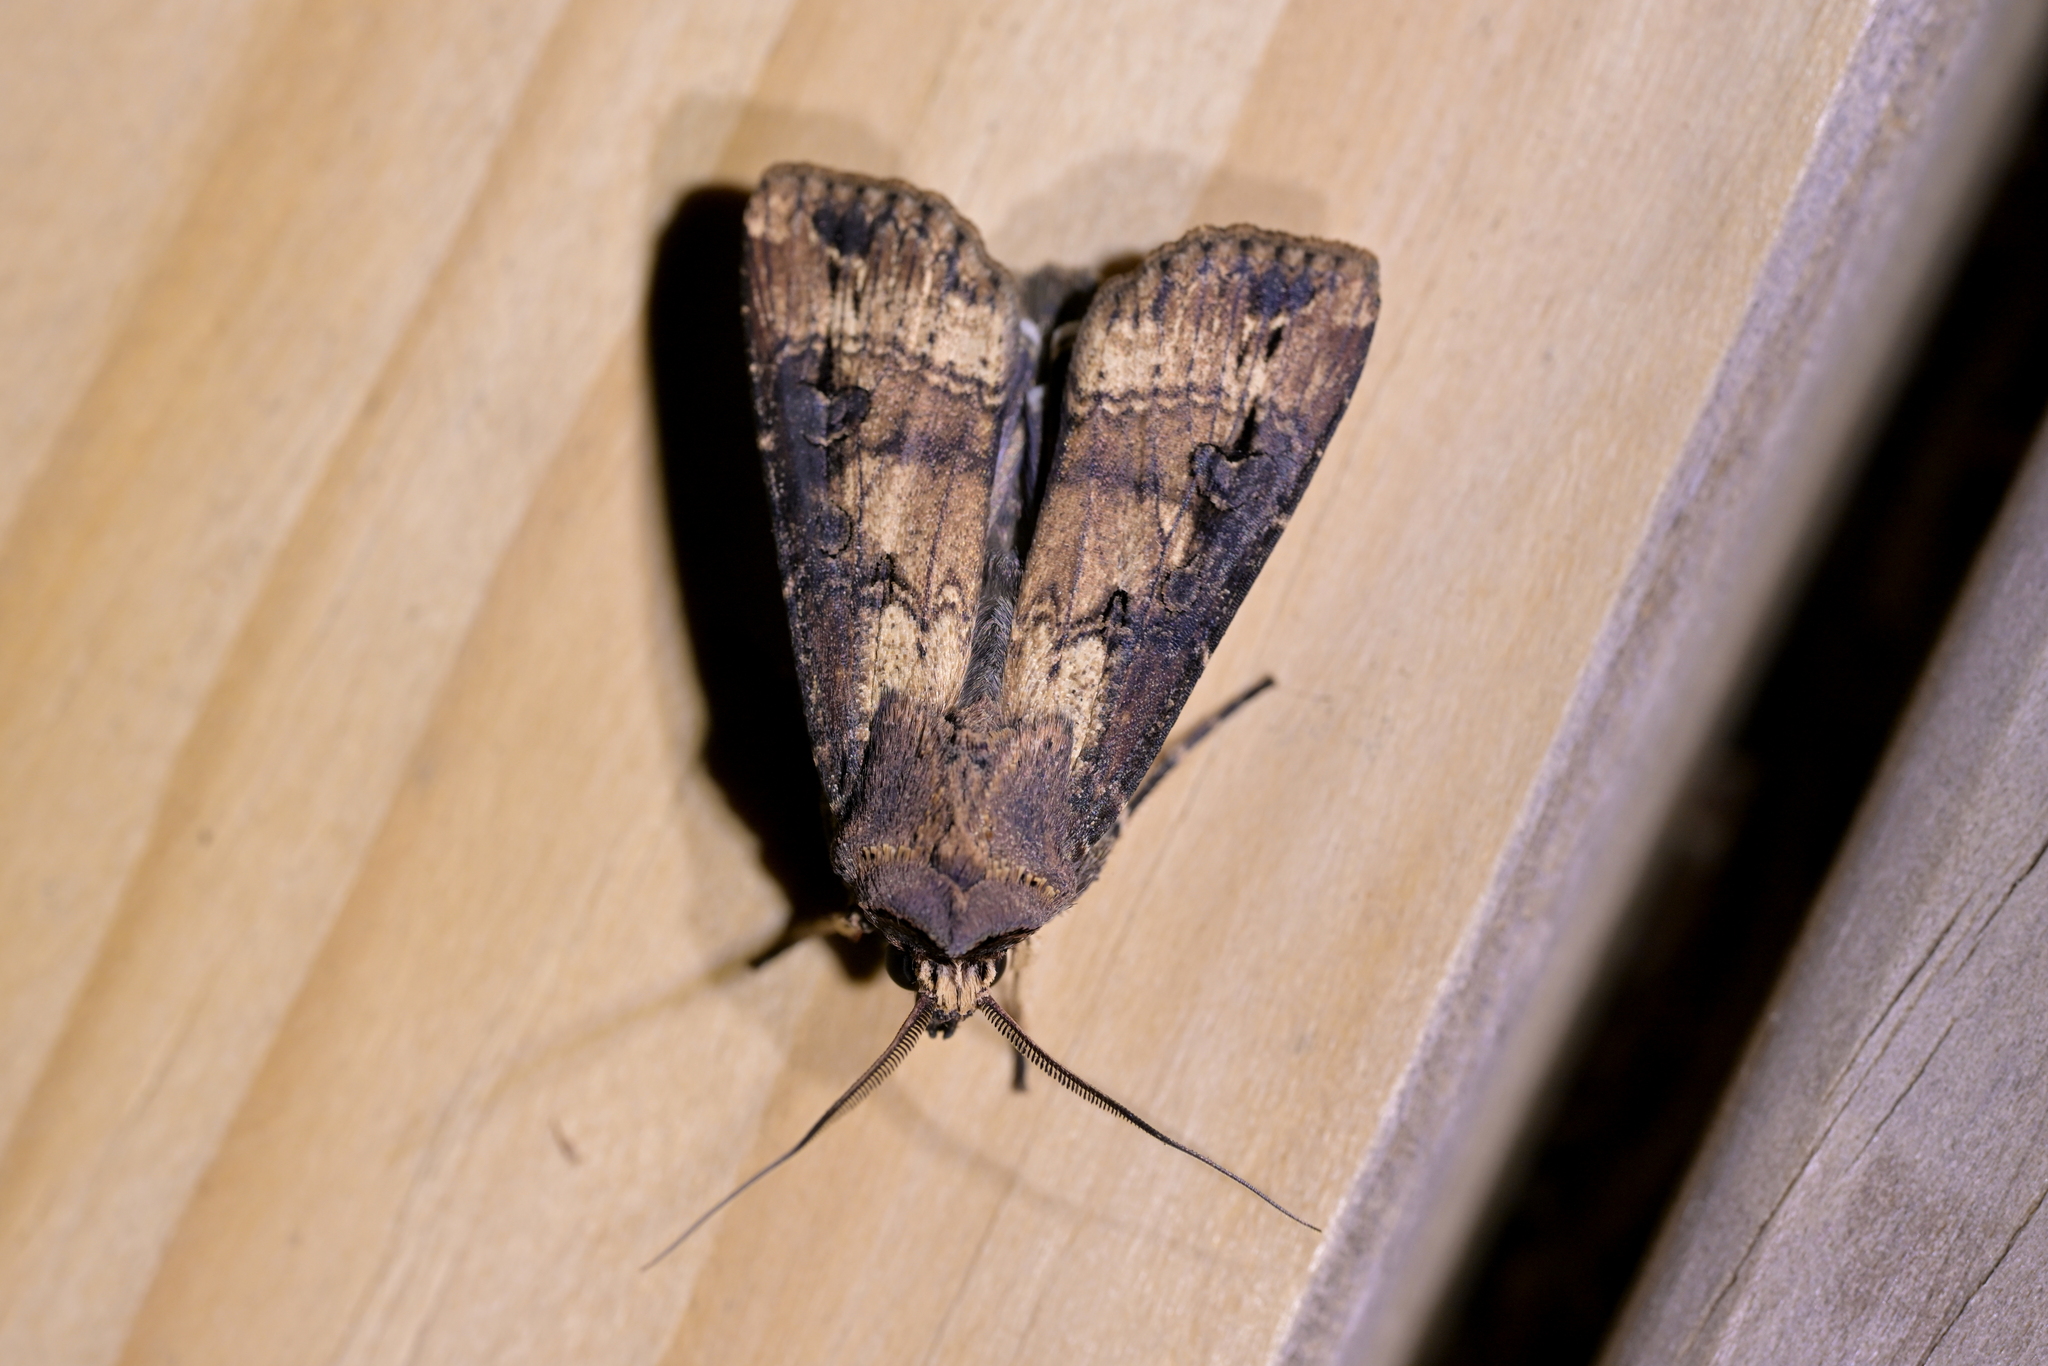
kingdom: Animalia
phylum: Arthropoda
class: Insecta
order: Lepidoptera
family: Noctuidae
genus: Agrotis
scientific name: Agrotis ipsilon
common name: Dark sword-grass
